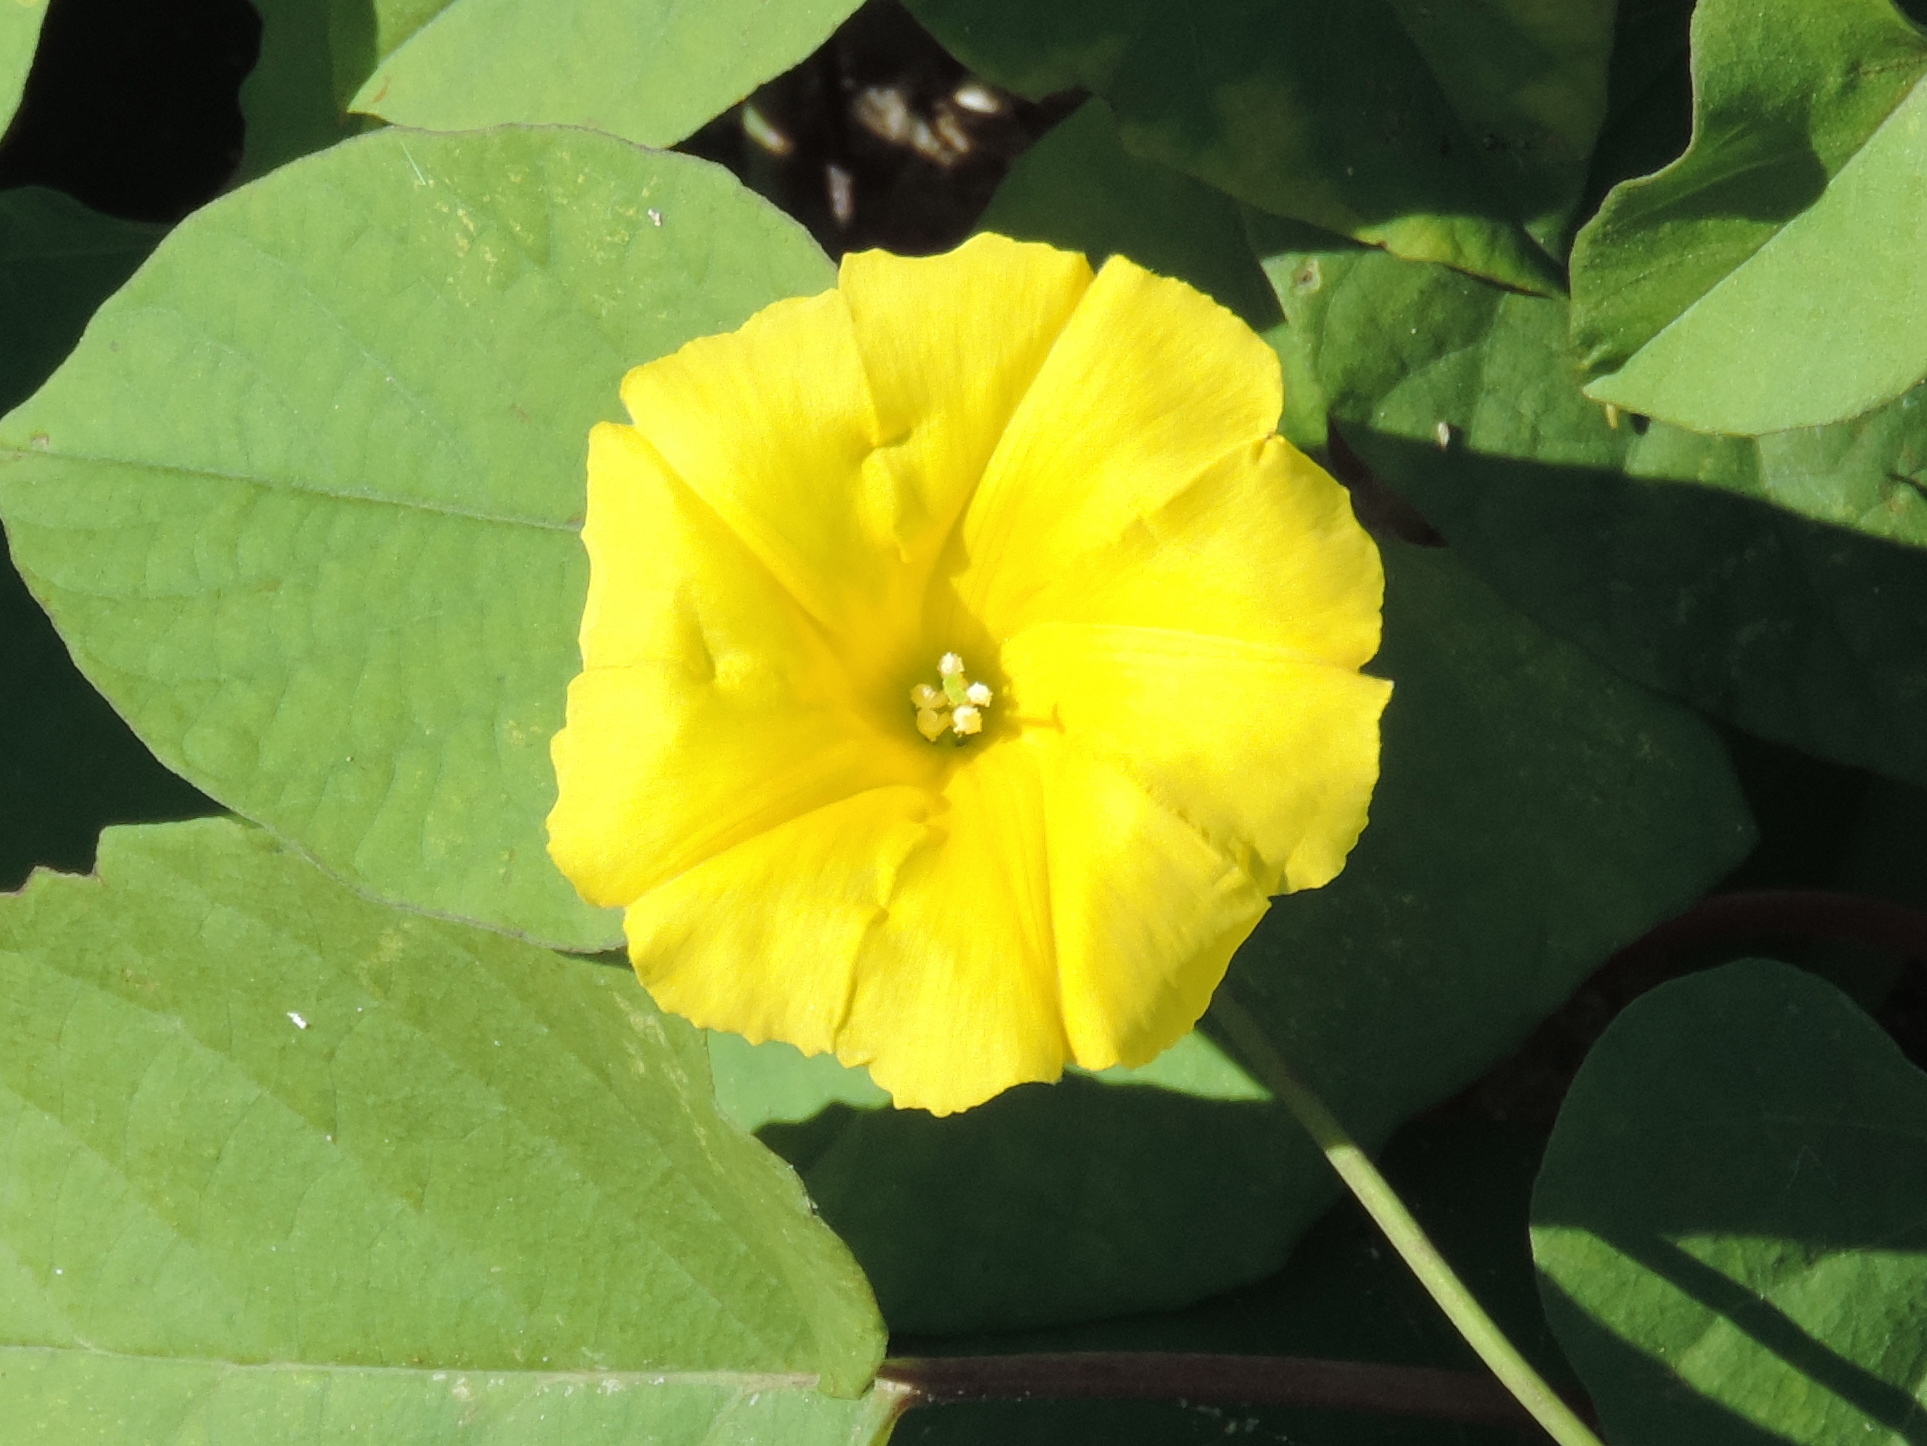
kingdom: Plantae
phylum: Tracheophyta
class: Magnoliopsida
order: Solanales
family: Convolvulaceae
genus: Camonea
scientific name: Camonea umbellata
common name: Hogvine
